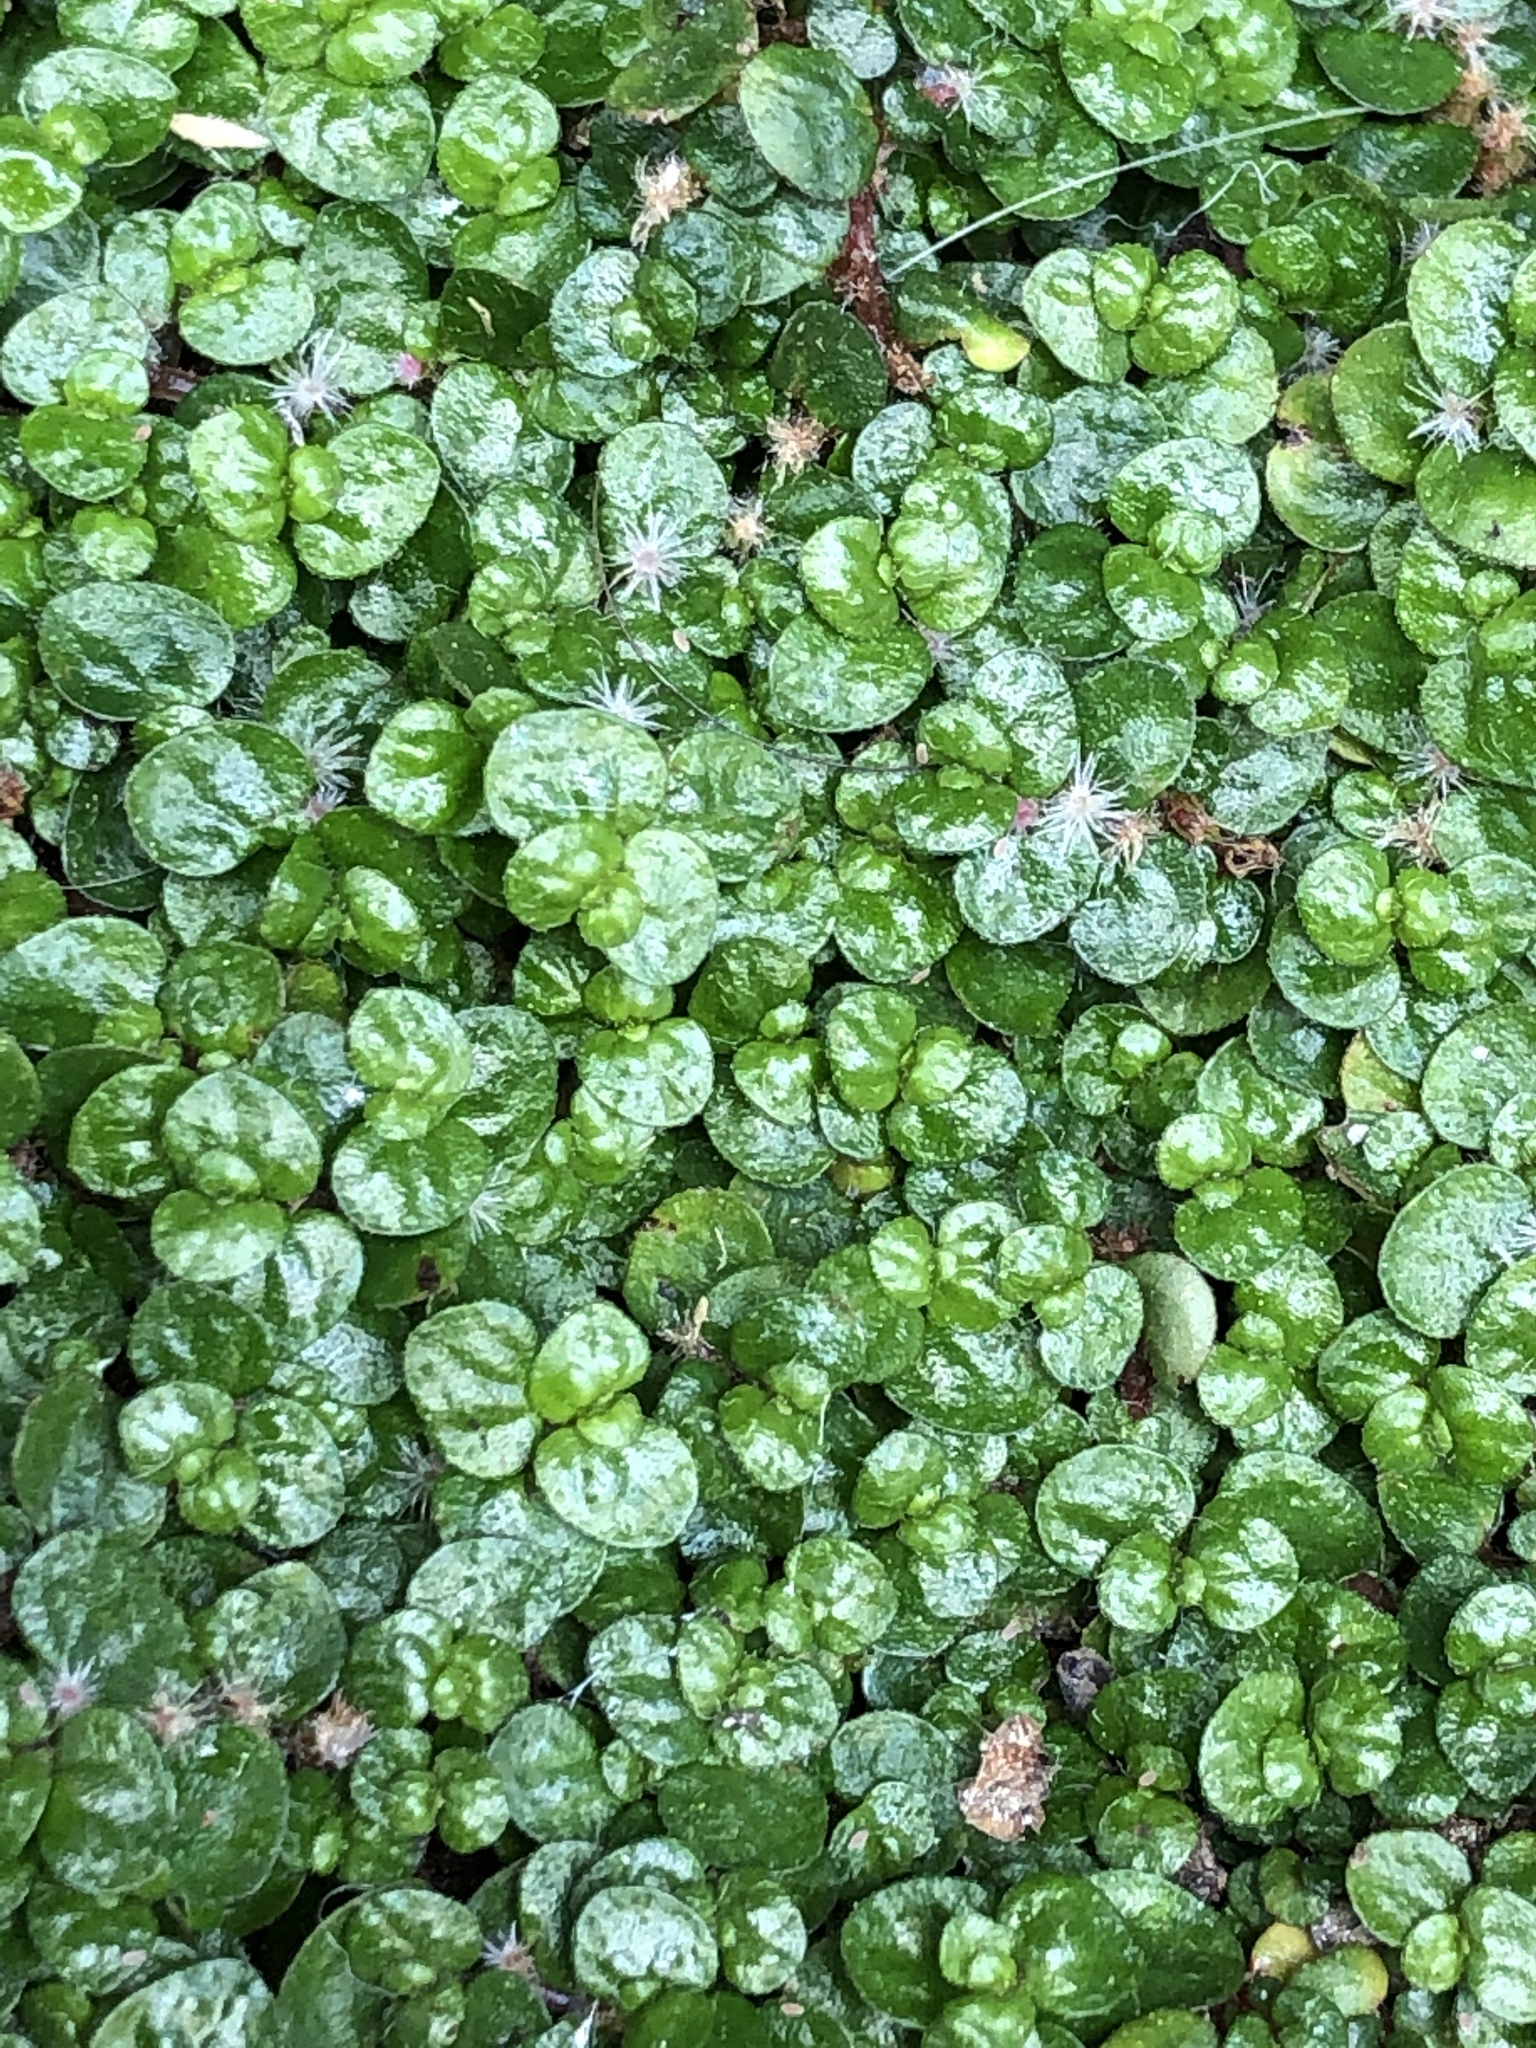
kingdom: Plantae
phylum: Tracheophyta
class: Magnoliopsida
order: Rosales
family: Urticaceae
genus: Soleirolia
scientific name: Soleirolia soleirolii
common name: Mind-your-own-business
